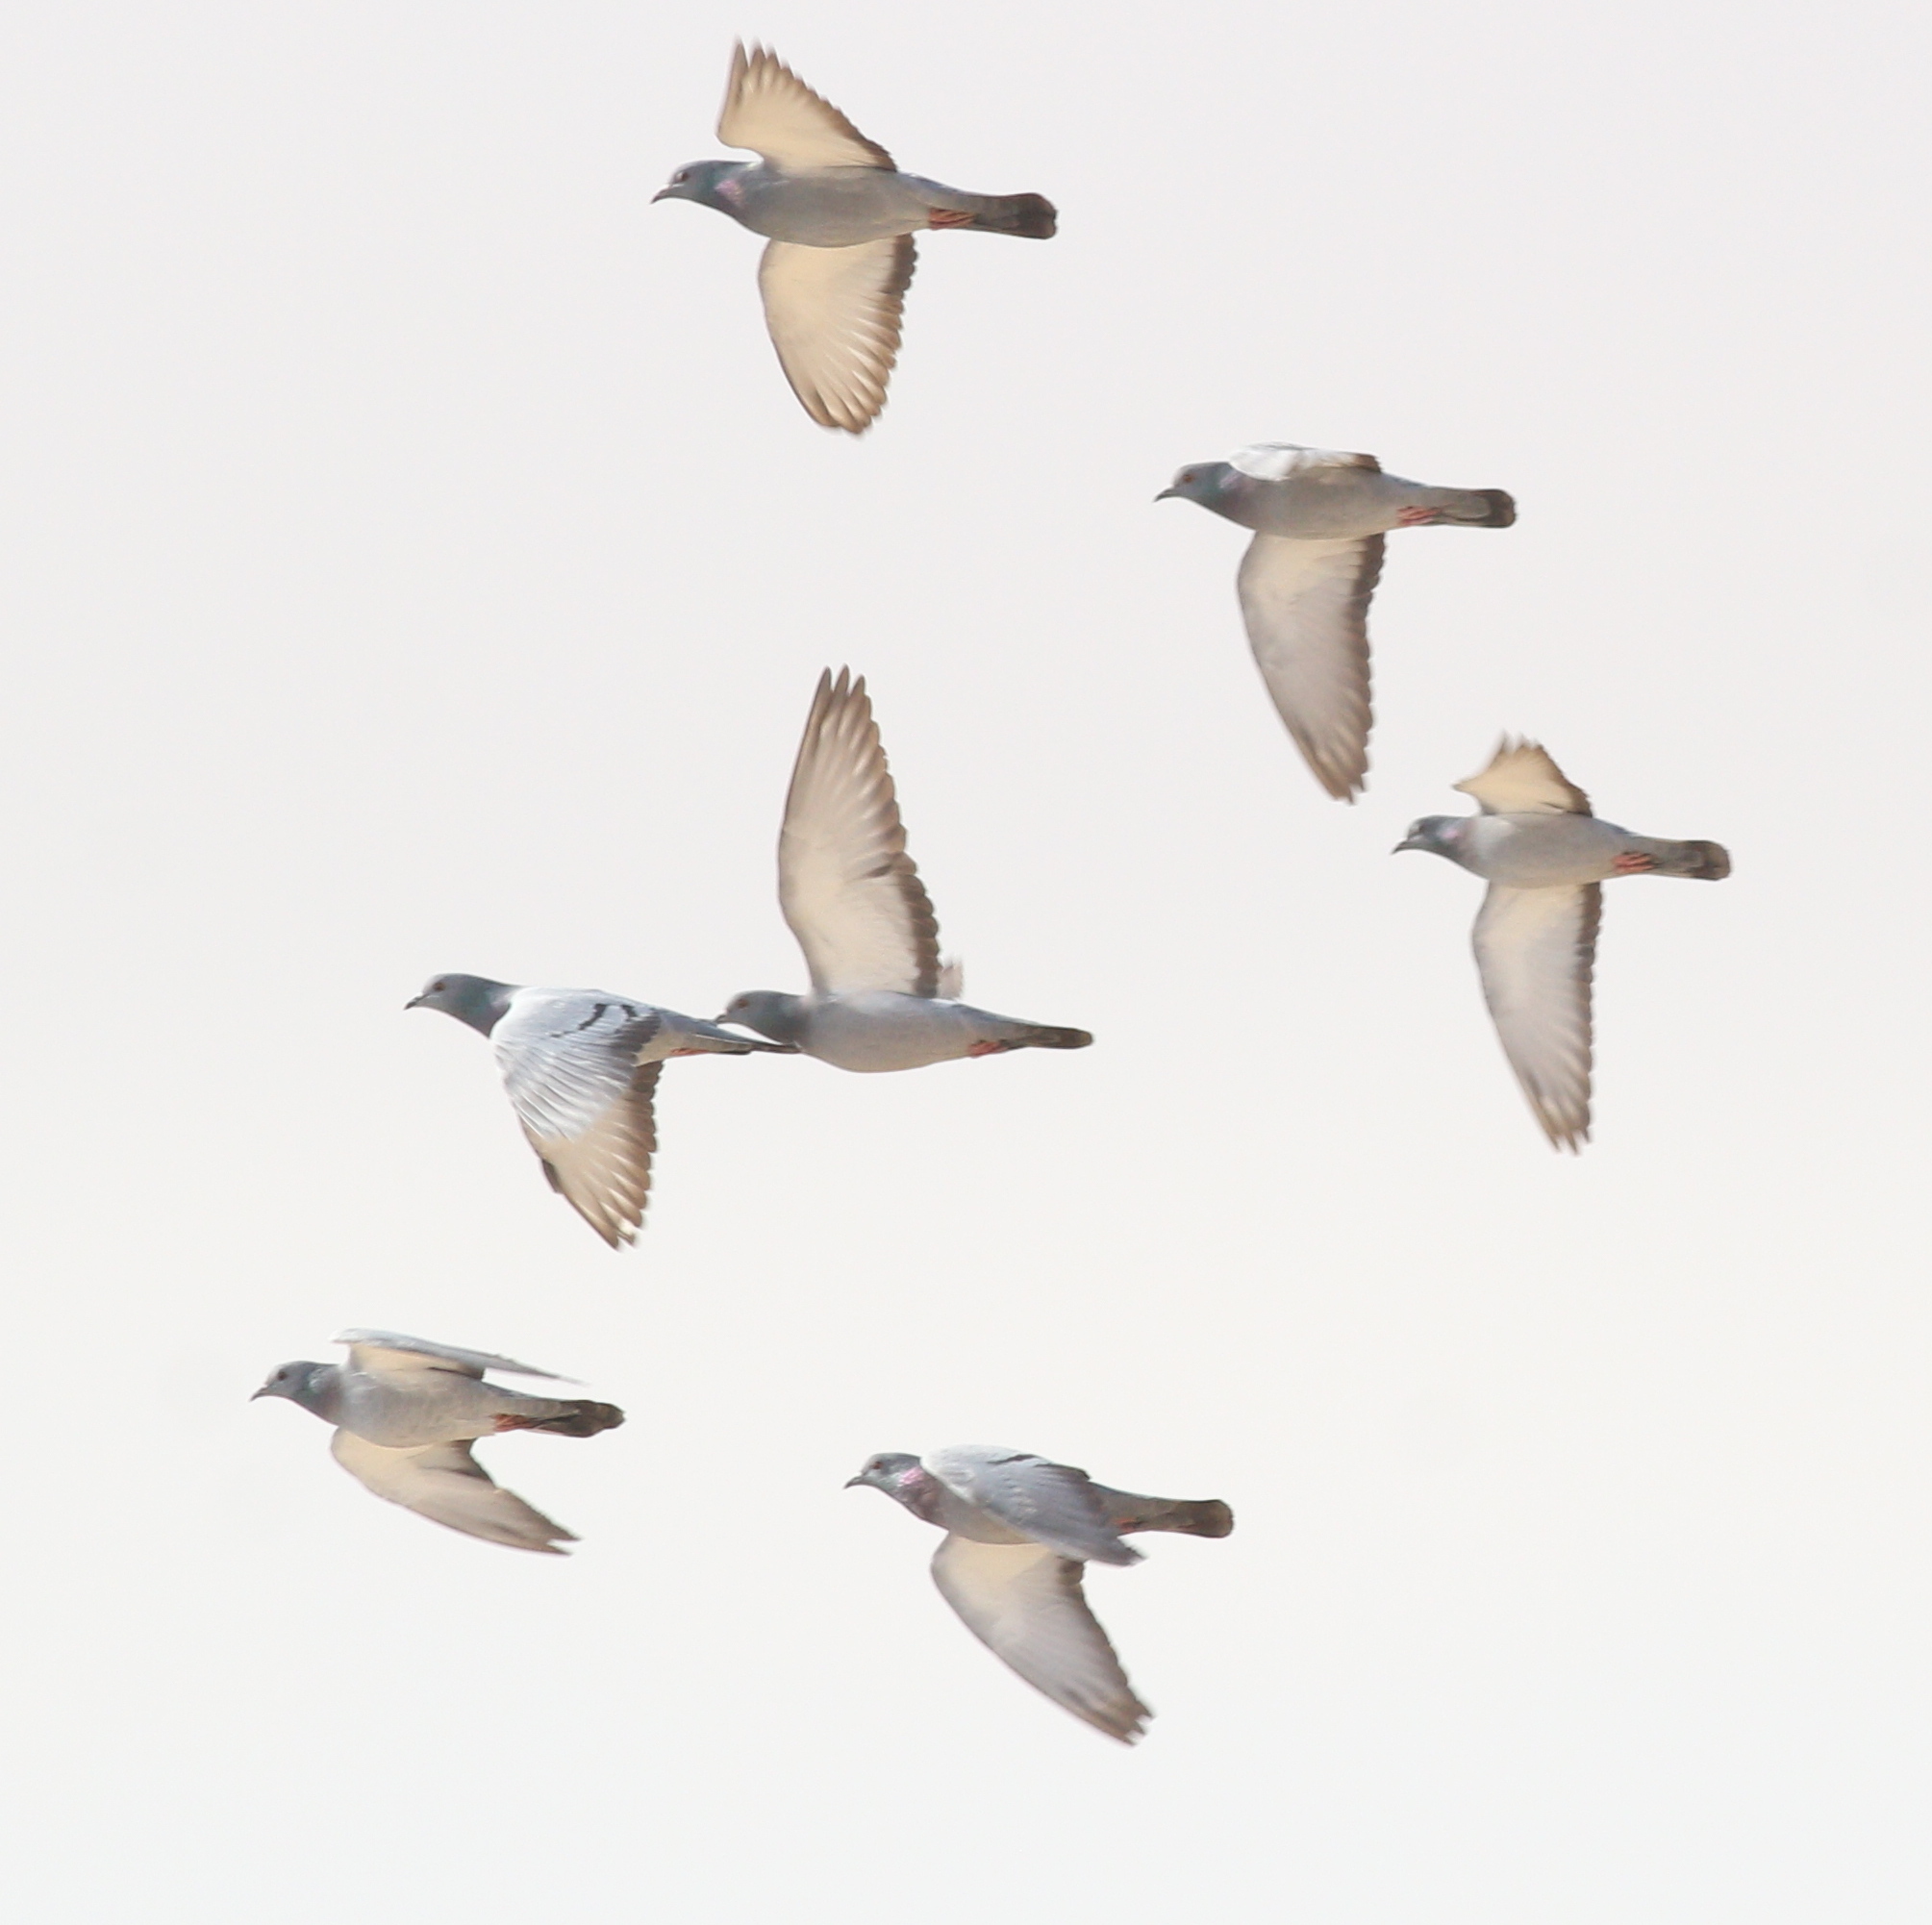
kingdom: Animalia
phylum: Chordata
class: Aves
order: Columbiformes
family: Columbidae
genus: Columba
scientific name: Columba livia
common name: Rock pigeon
